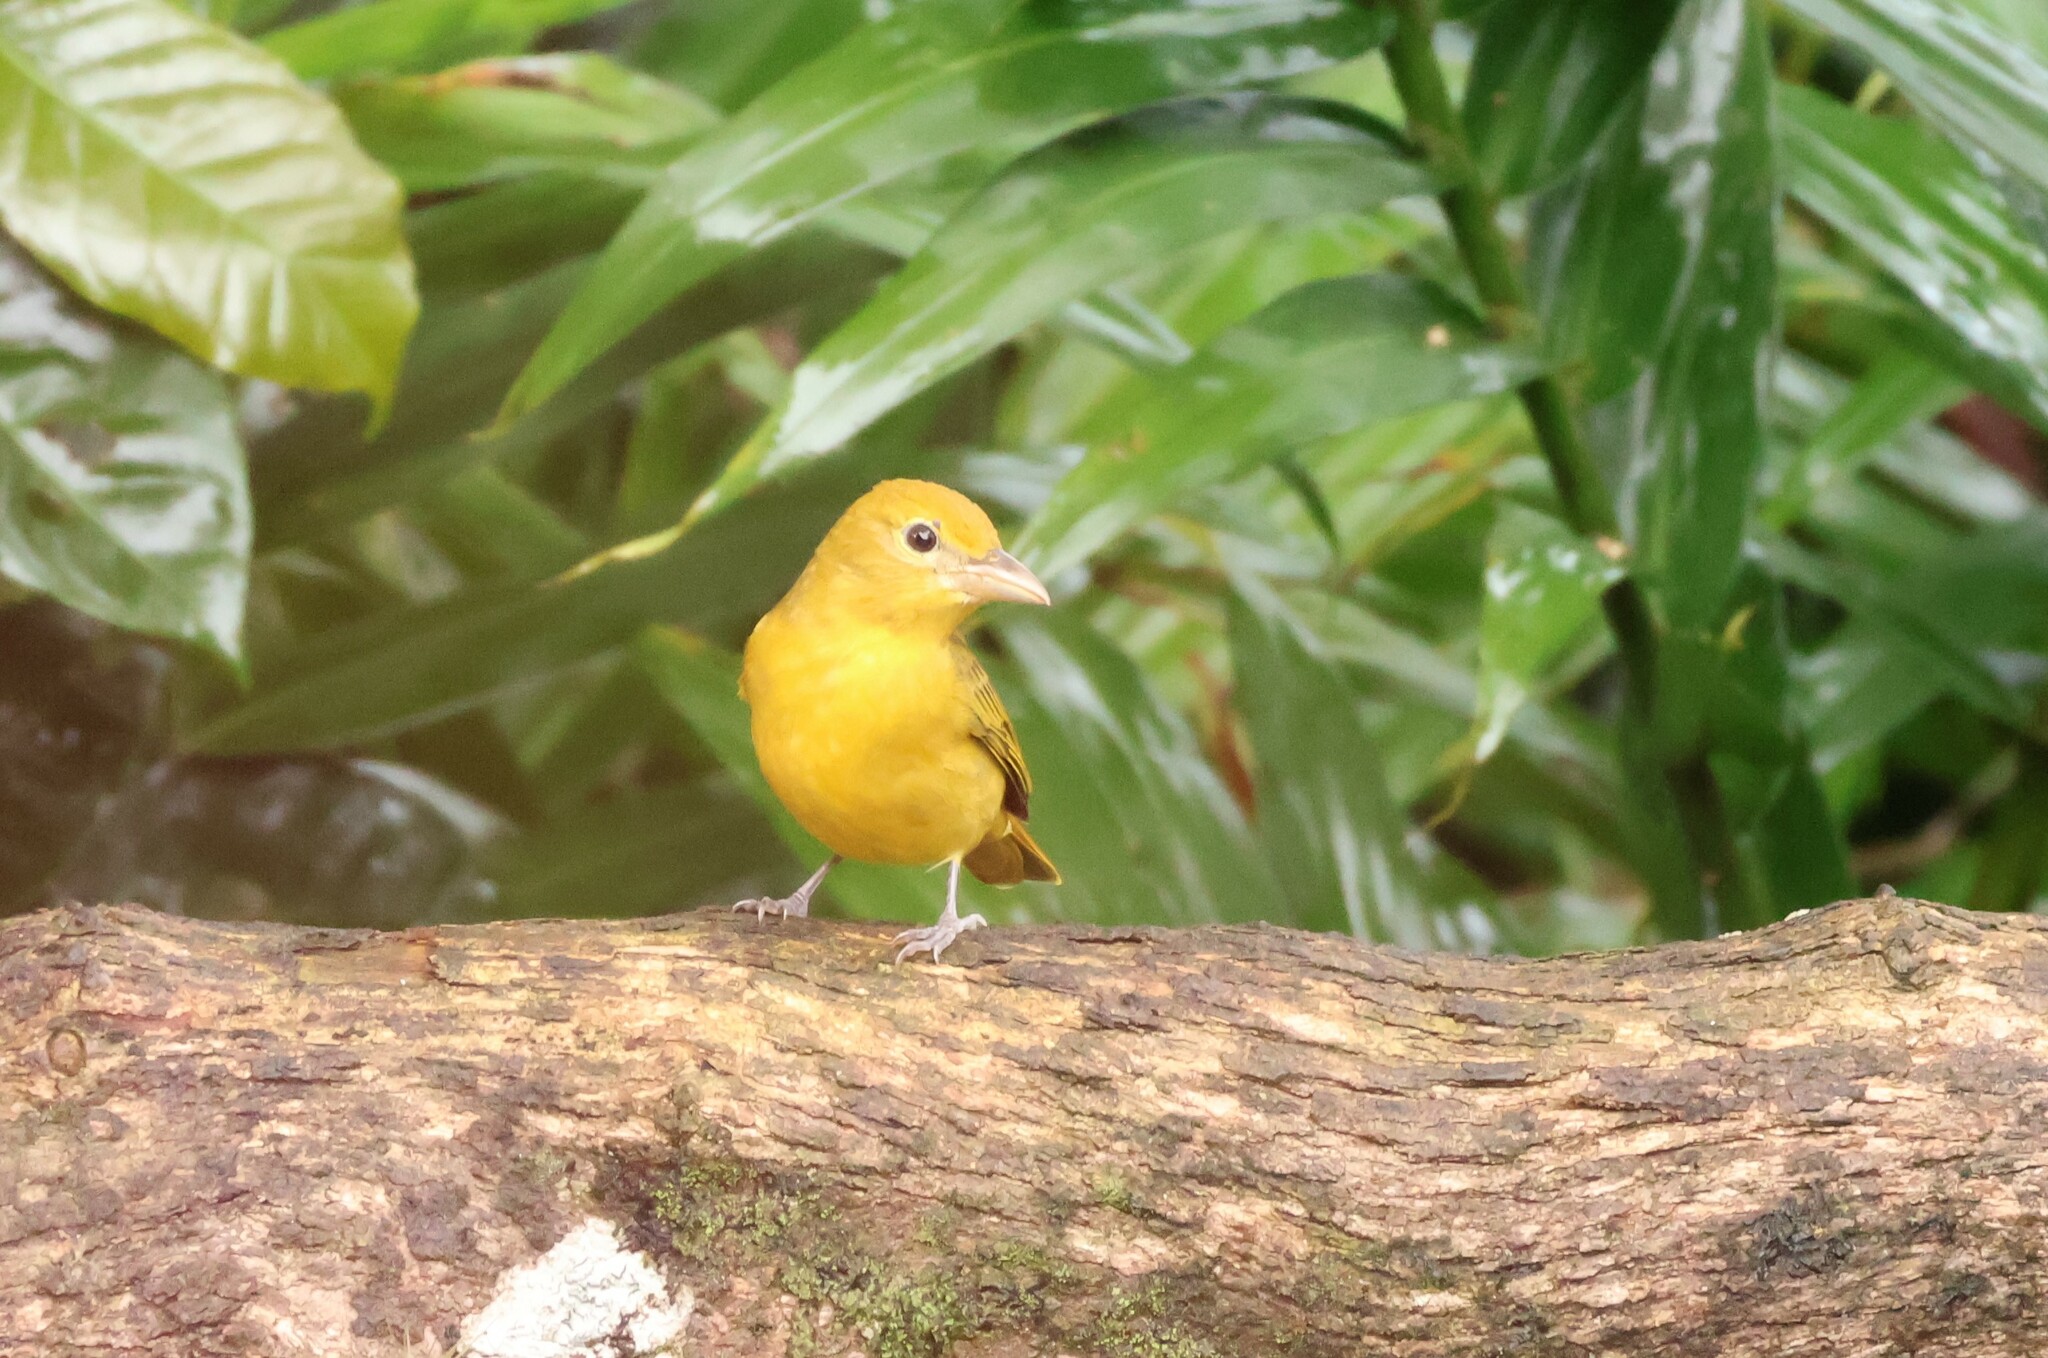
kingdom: Animalia
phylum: Chordata
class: Aves
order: Passeriformes
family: Cardinalidae
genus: Piranga
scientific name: Piranga rubra
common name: Summer tanager
